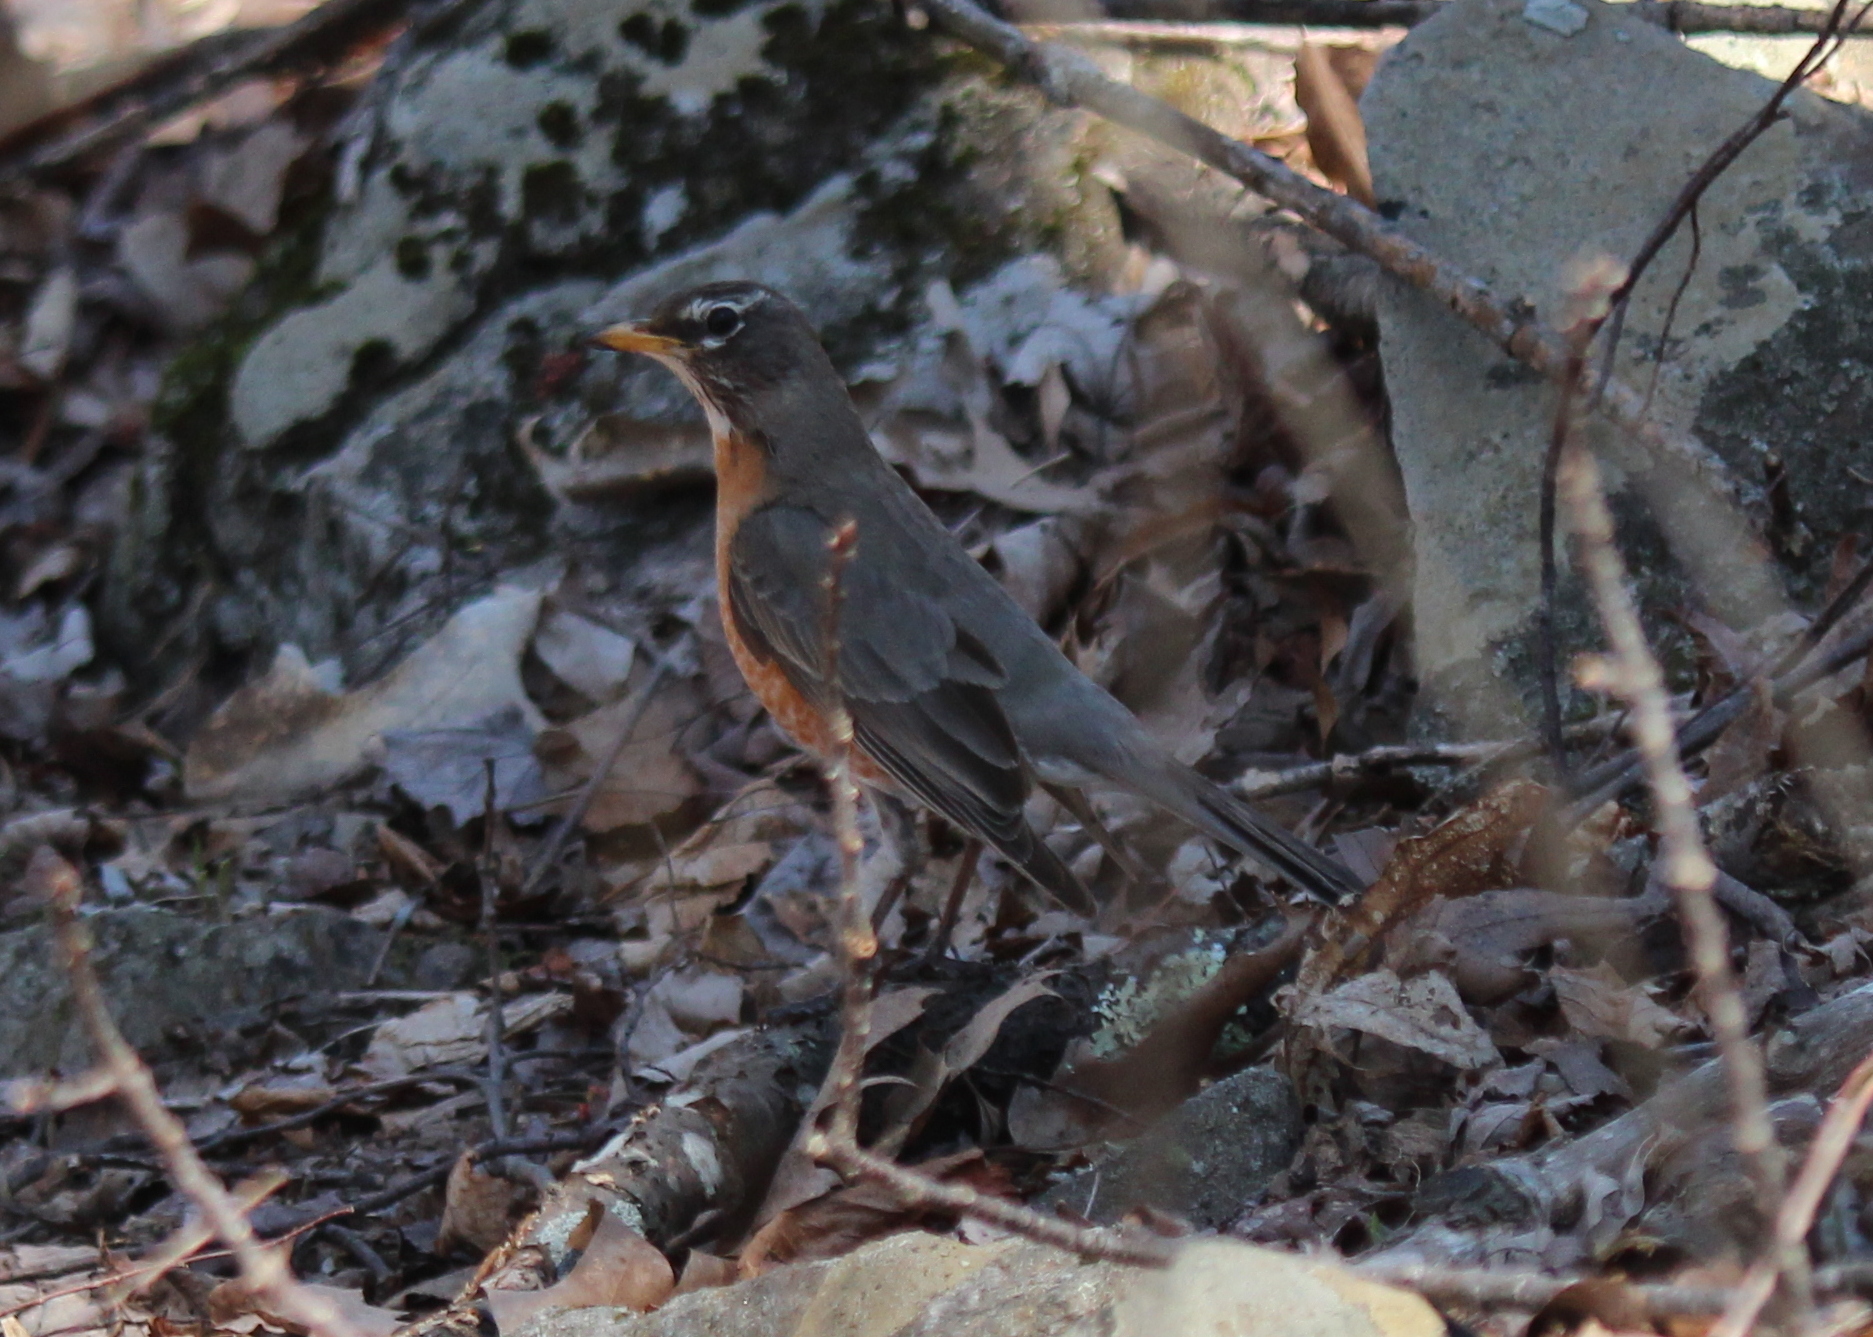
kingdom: Animalia
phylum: Chordata
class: Aves
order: Passeriformes
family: Turdidae
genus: Turdus
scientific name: Turdus migratorius
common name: American robin
